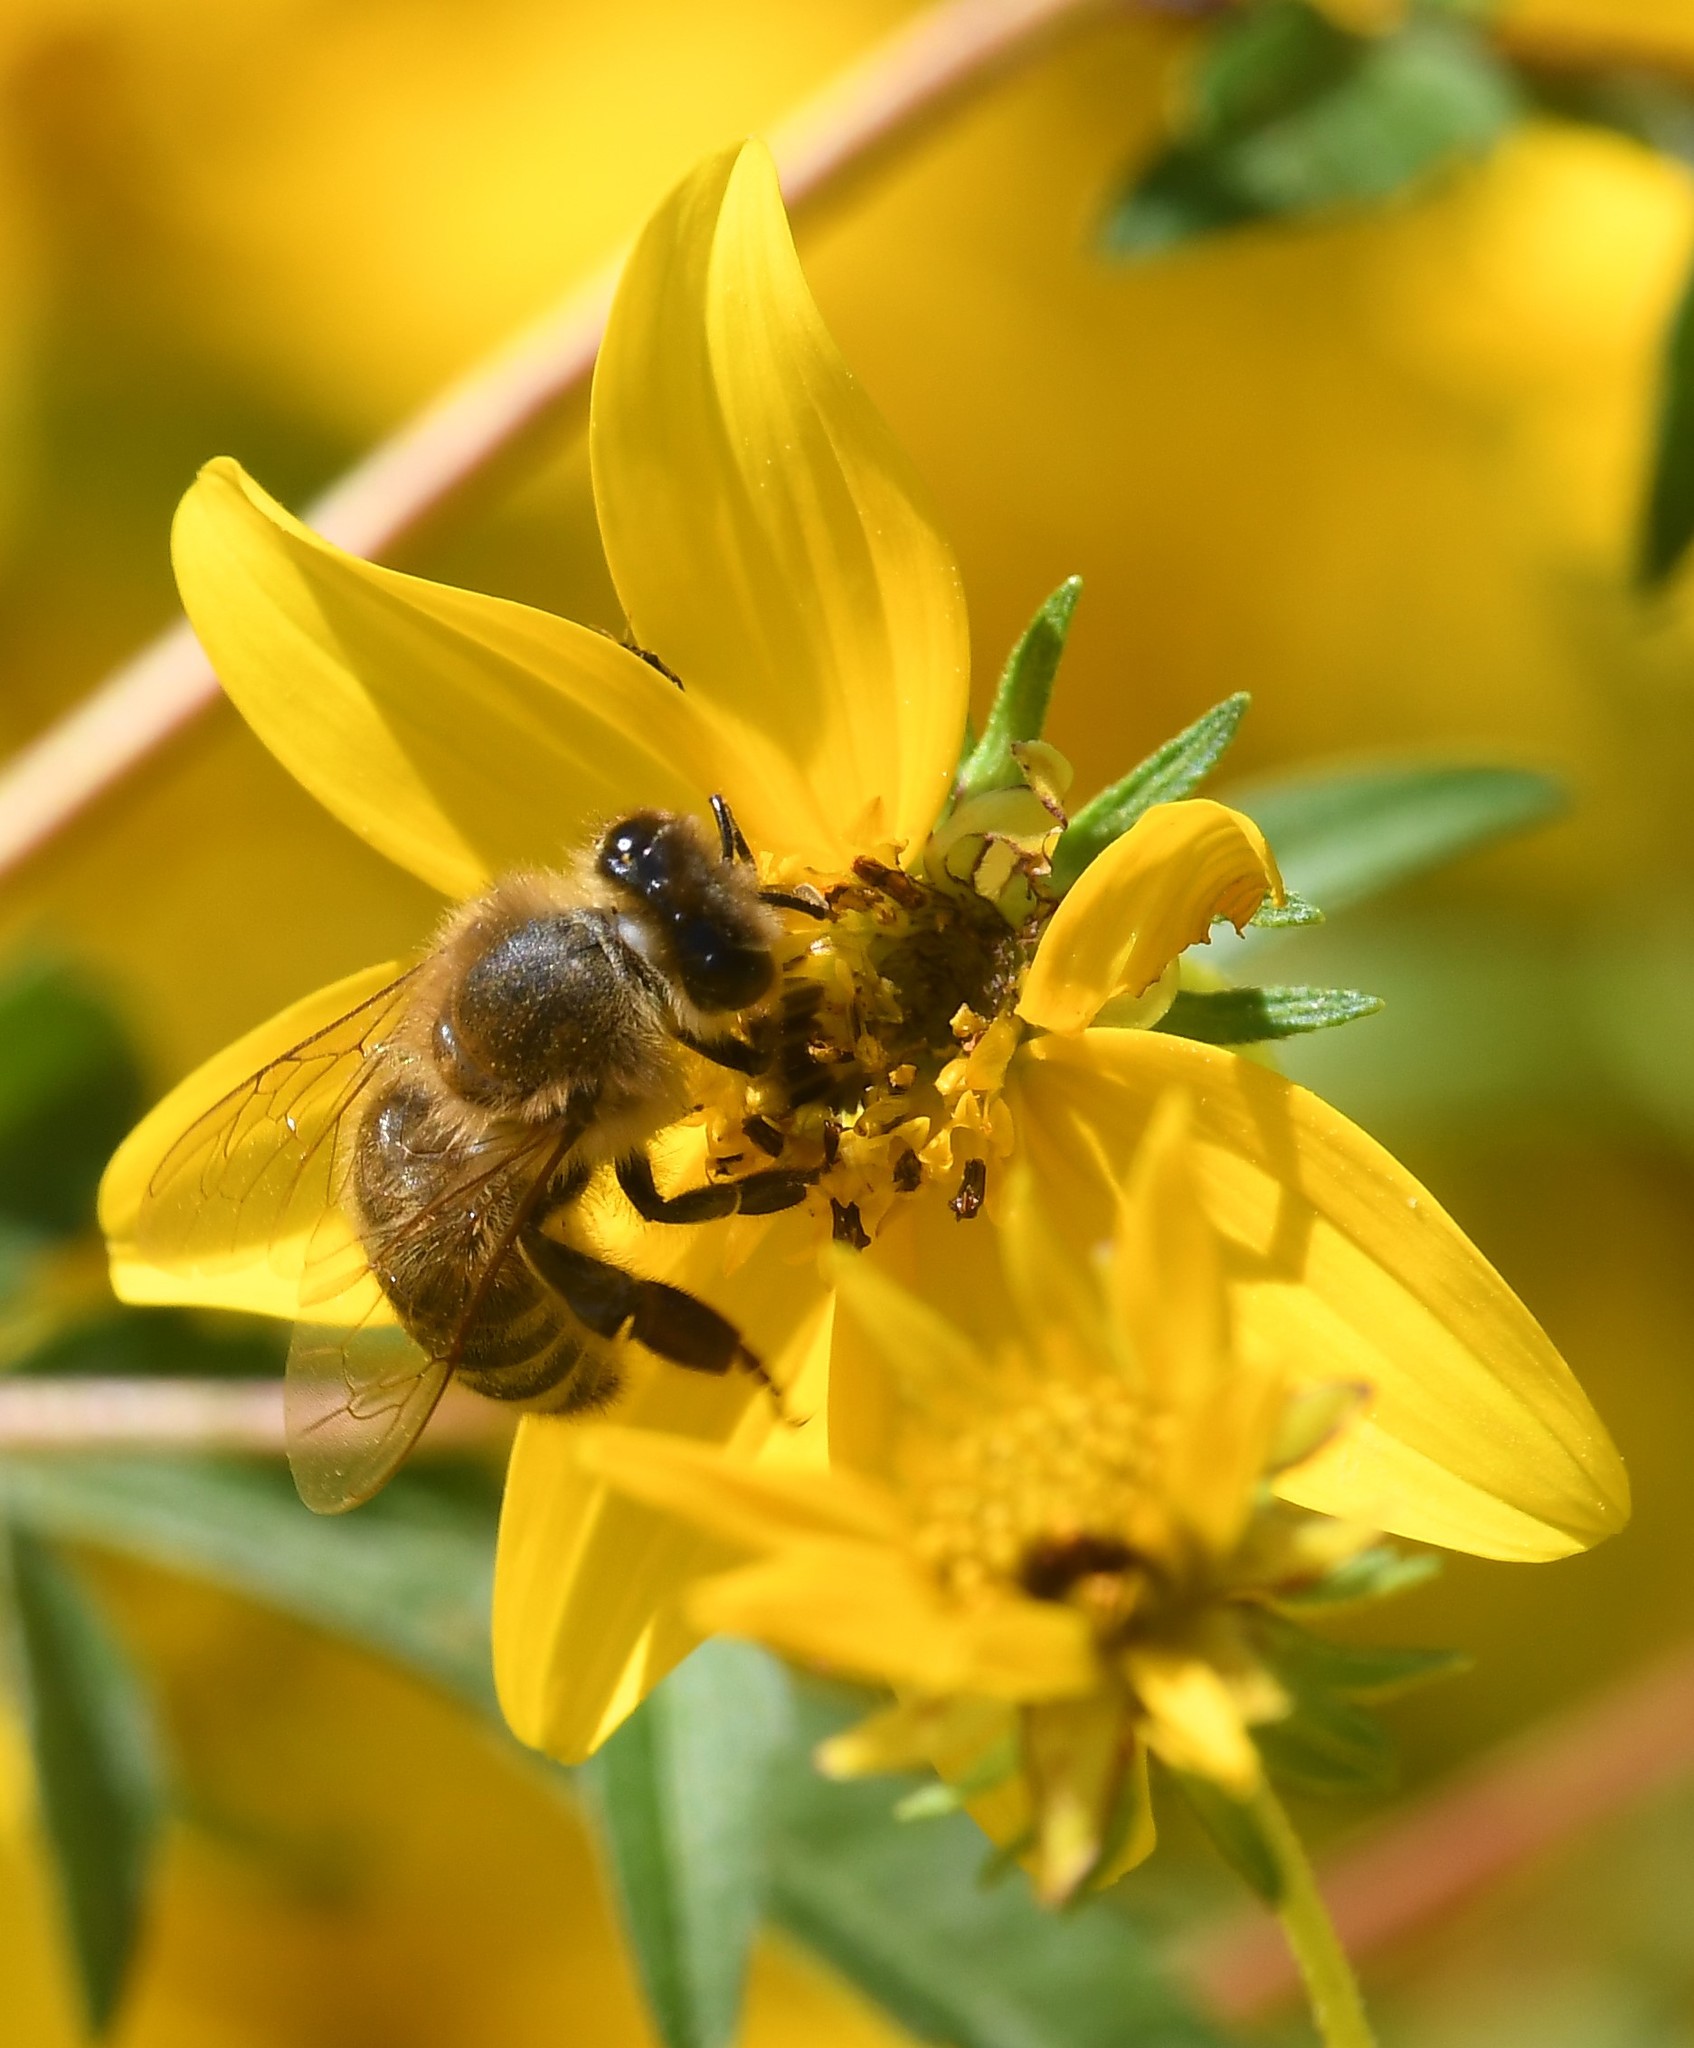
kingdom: Animalia
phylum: Arthropoda
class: Insecta
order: Hymenoptera
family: Apidae
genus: Apis
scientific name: Apis mellifera
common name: Honey bee
